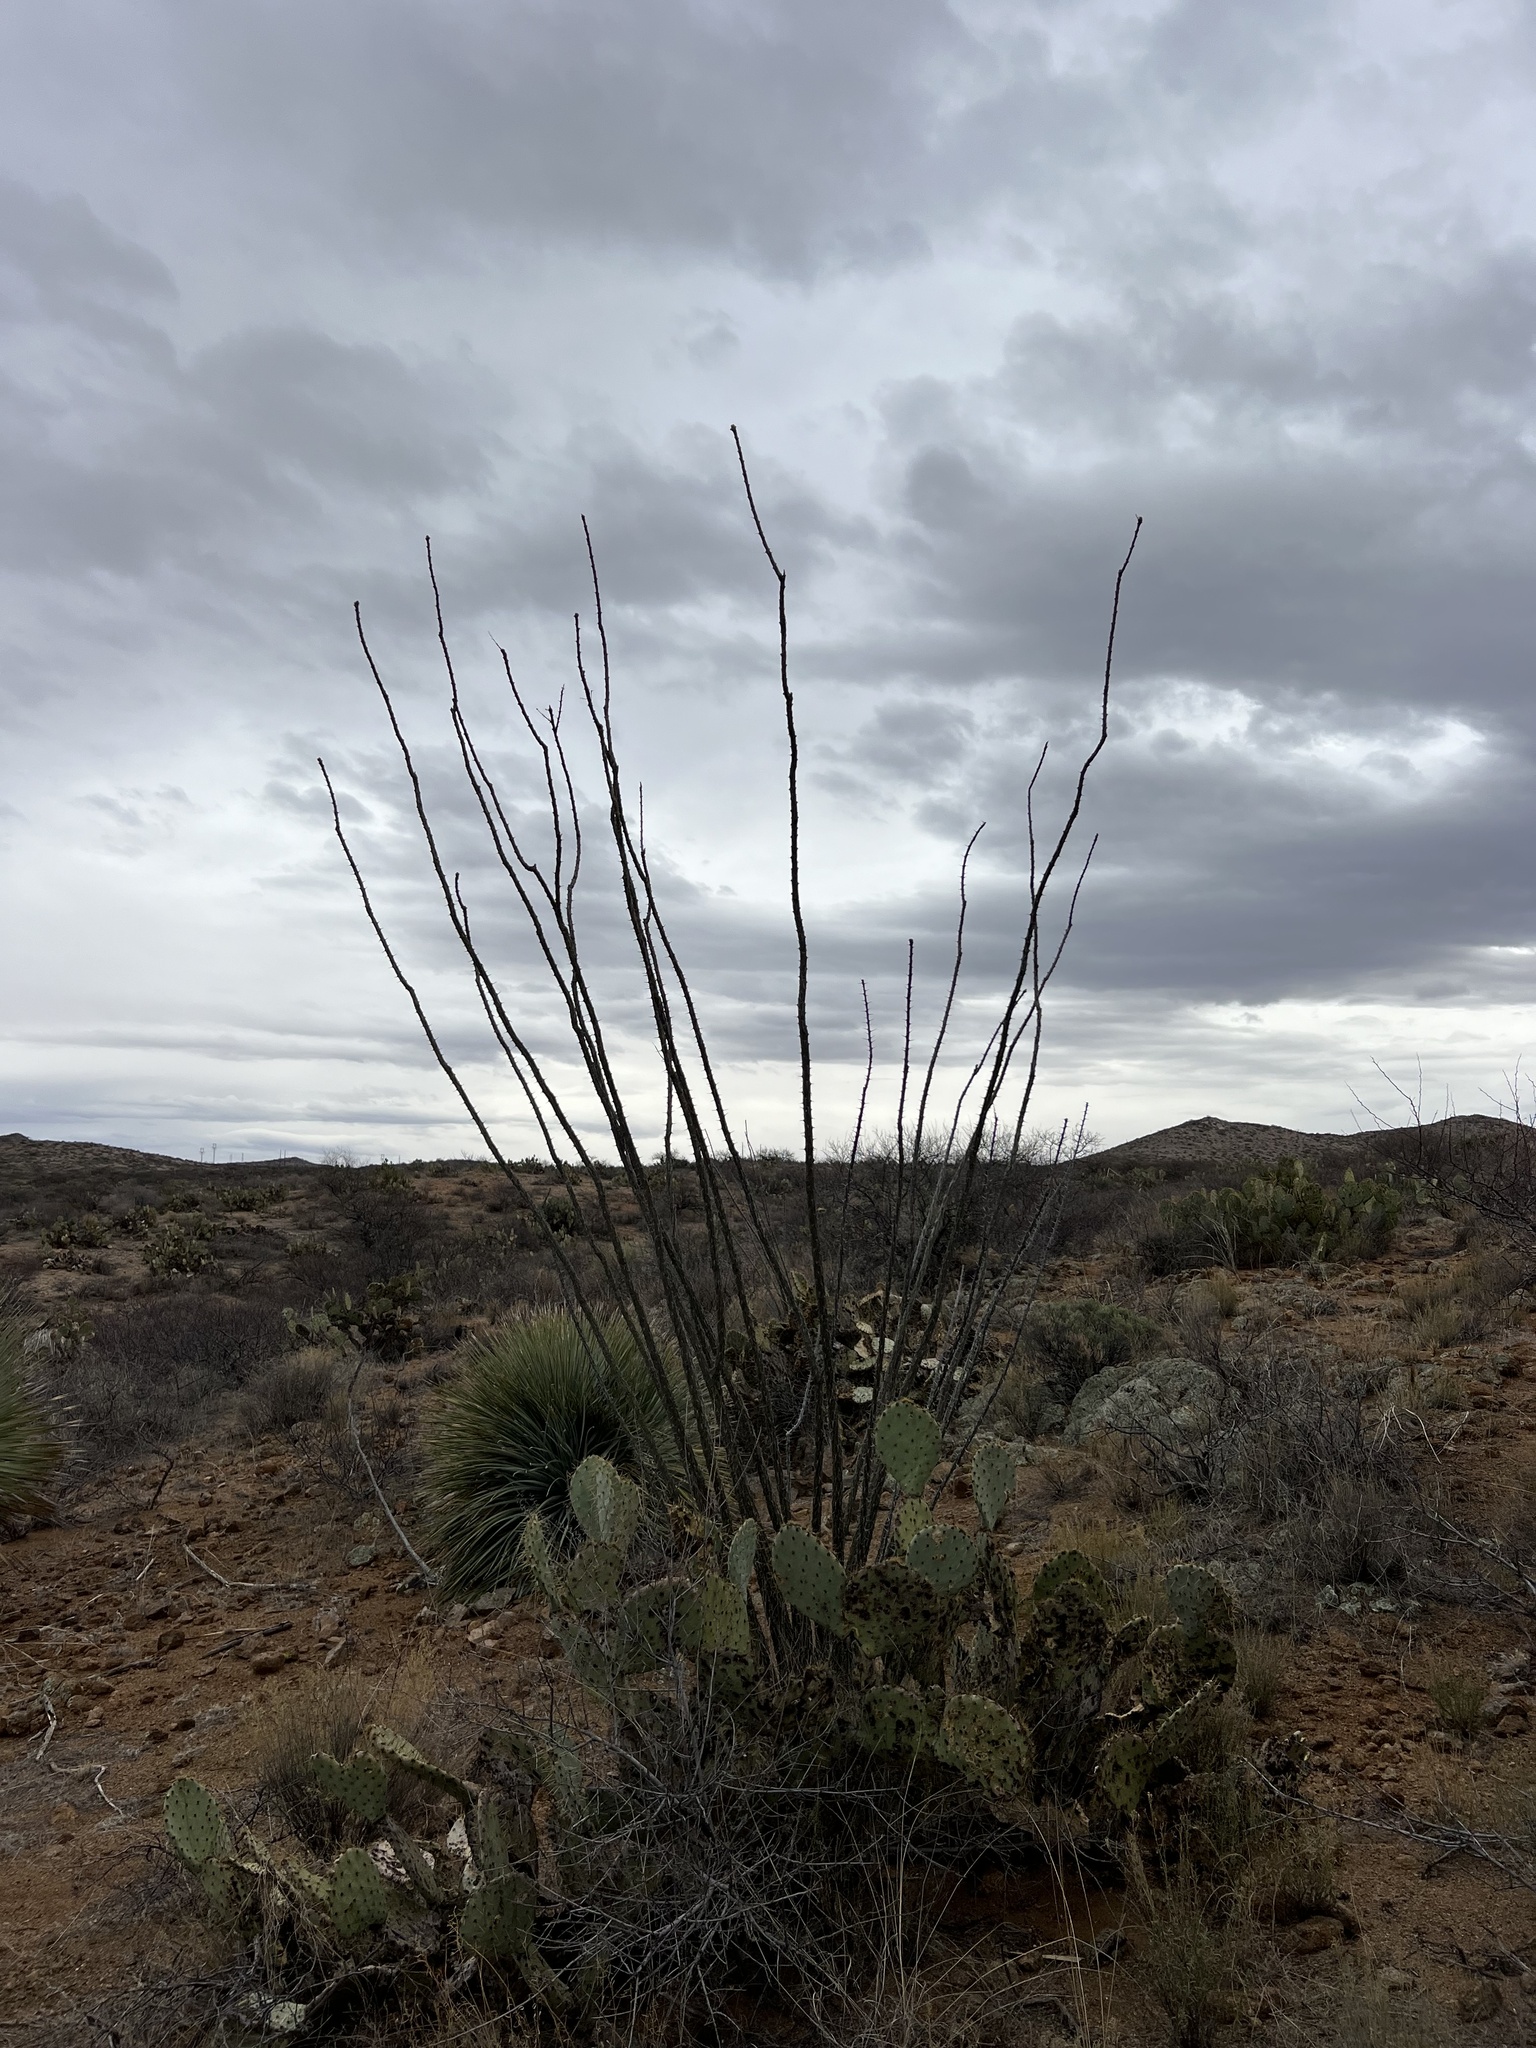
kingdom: Plantae
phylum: Tracheophyta
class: Magnoliopsida
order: Ericales
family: Fouquieriaceae
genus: Fouquieria
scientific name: Fouquieria splendens
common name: Vine-cactus
